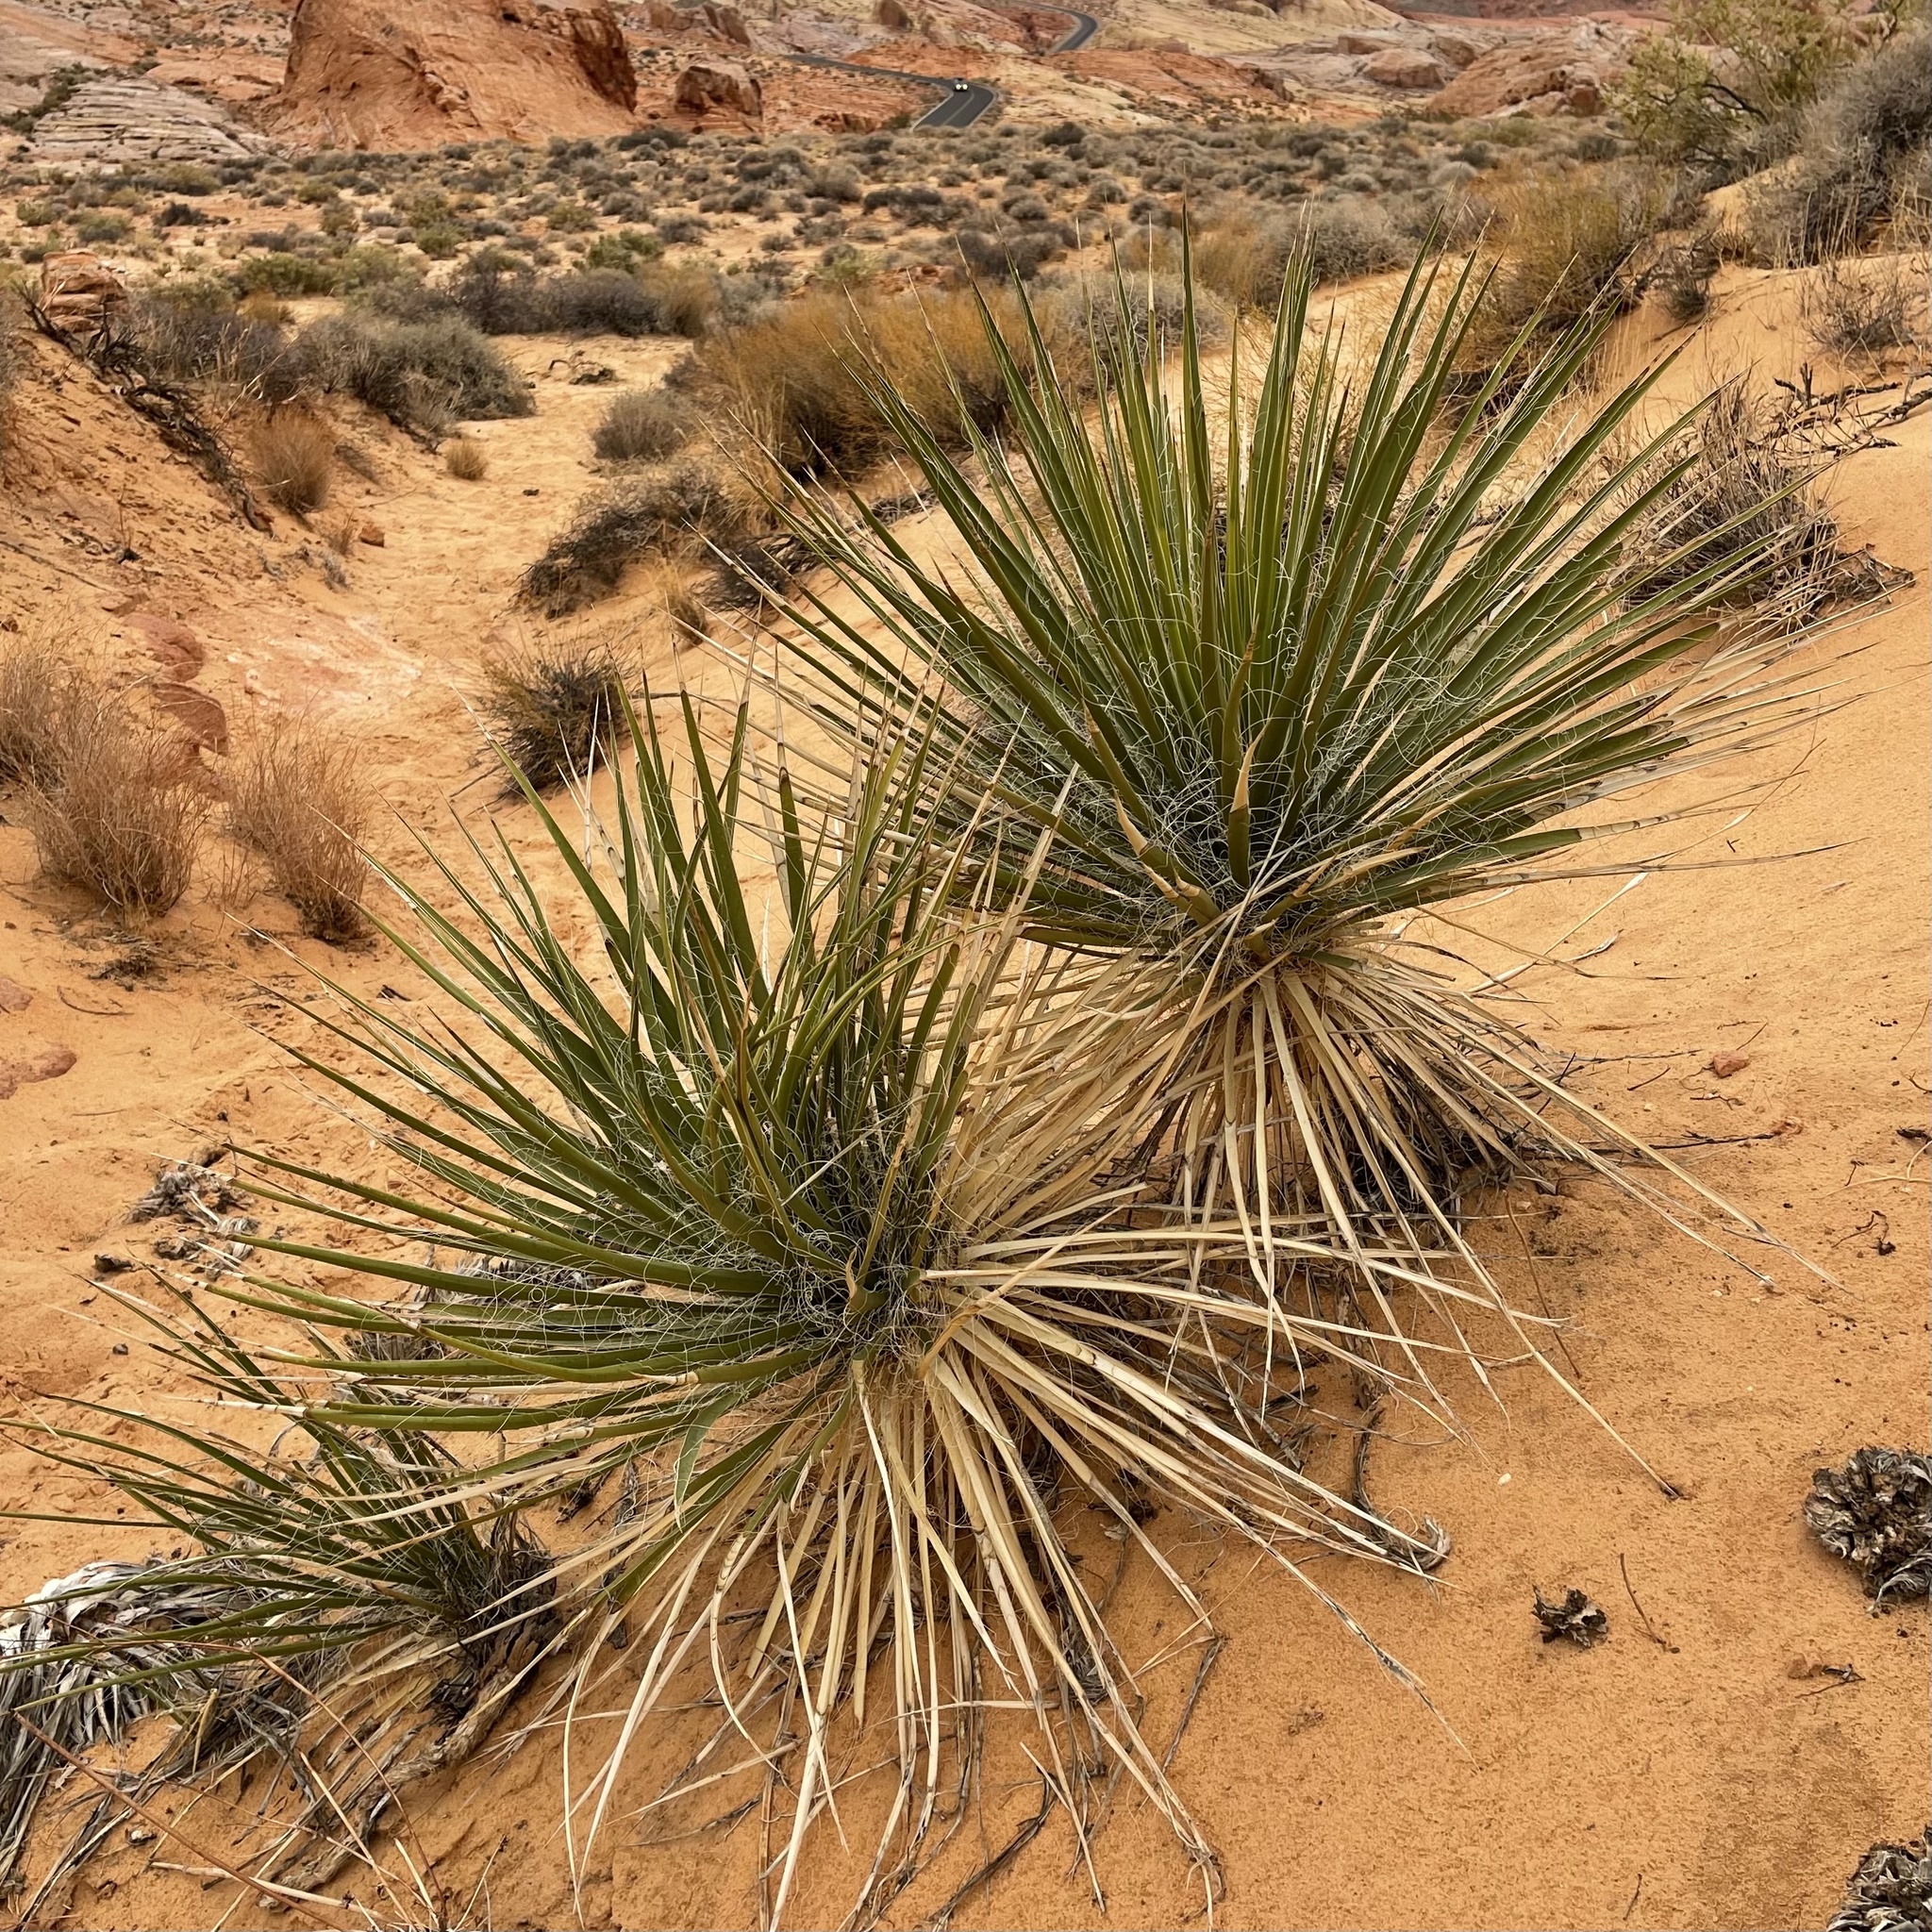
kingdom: Plantae
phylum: Tracheophyta
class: Liliopsida
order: Asparagales
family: Asparagaceae
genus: Yucca
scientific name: Yucca utahensis
